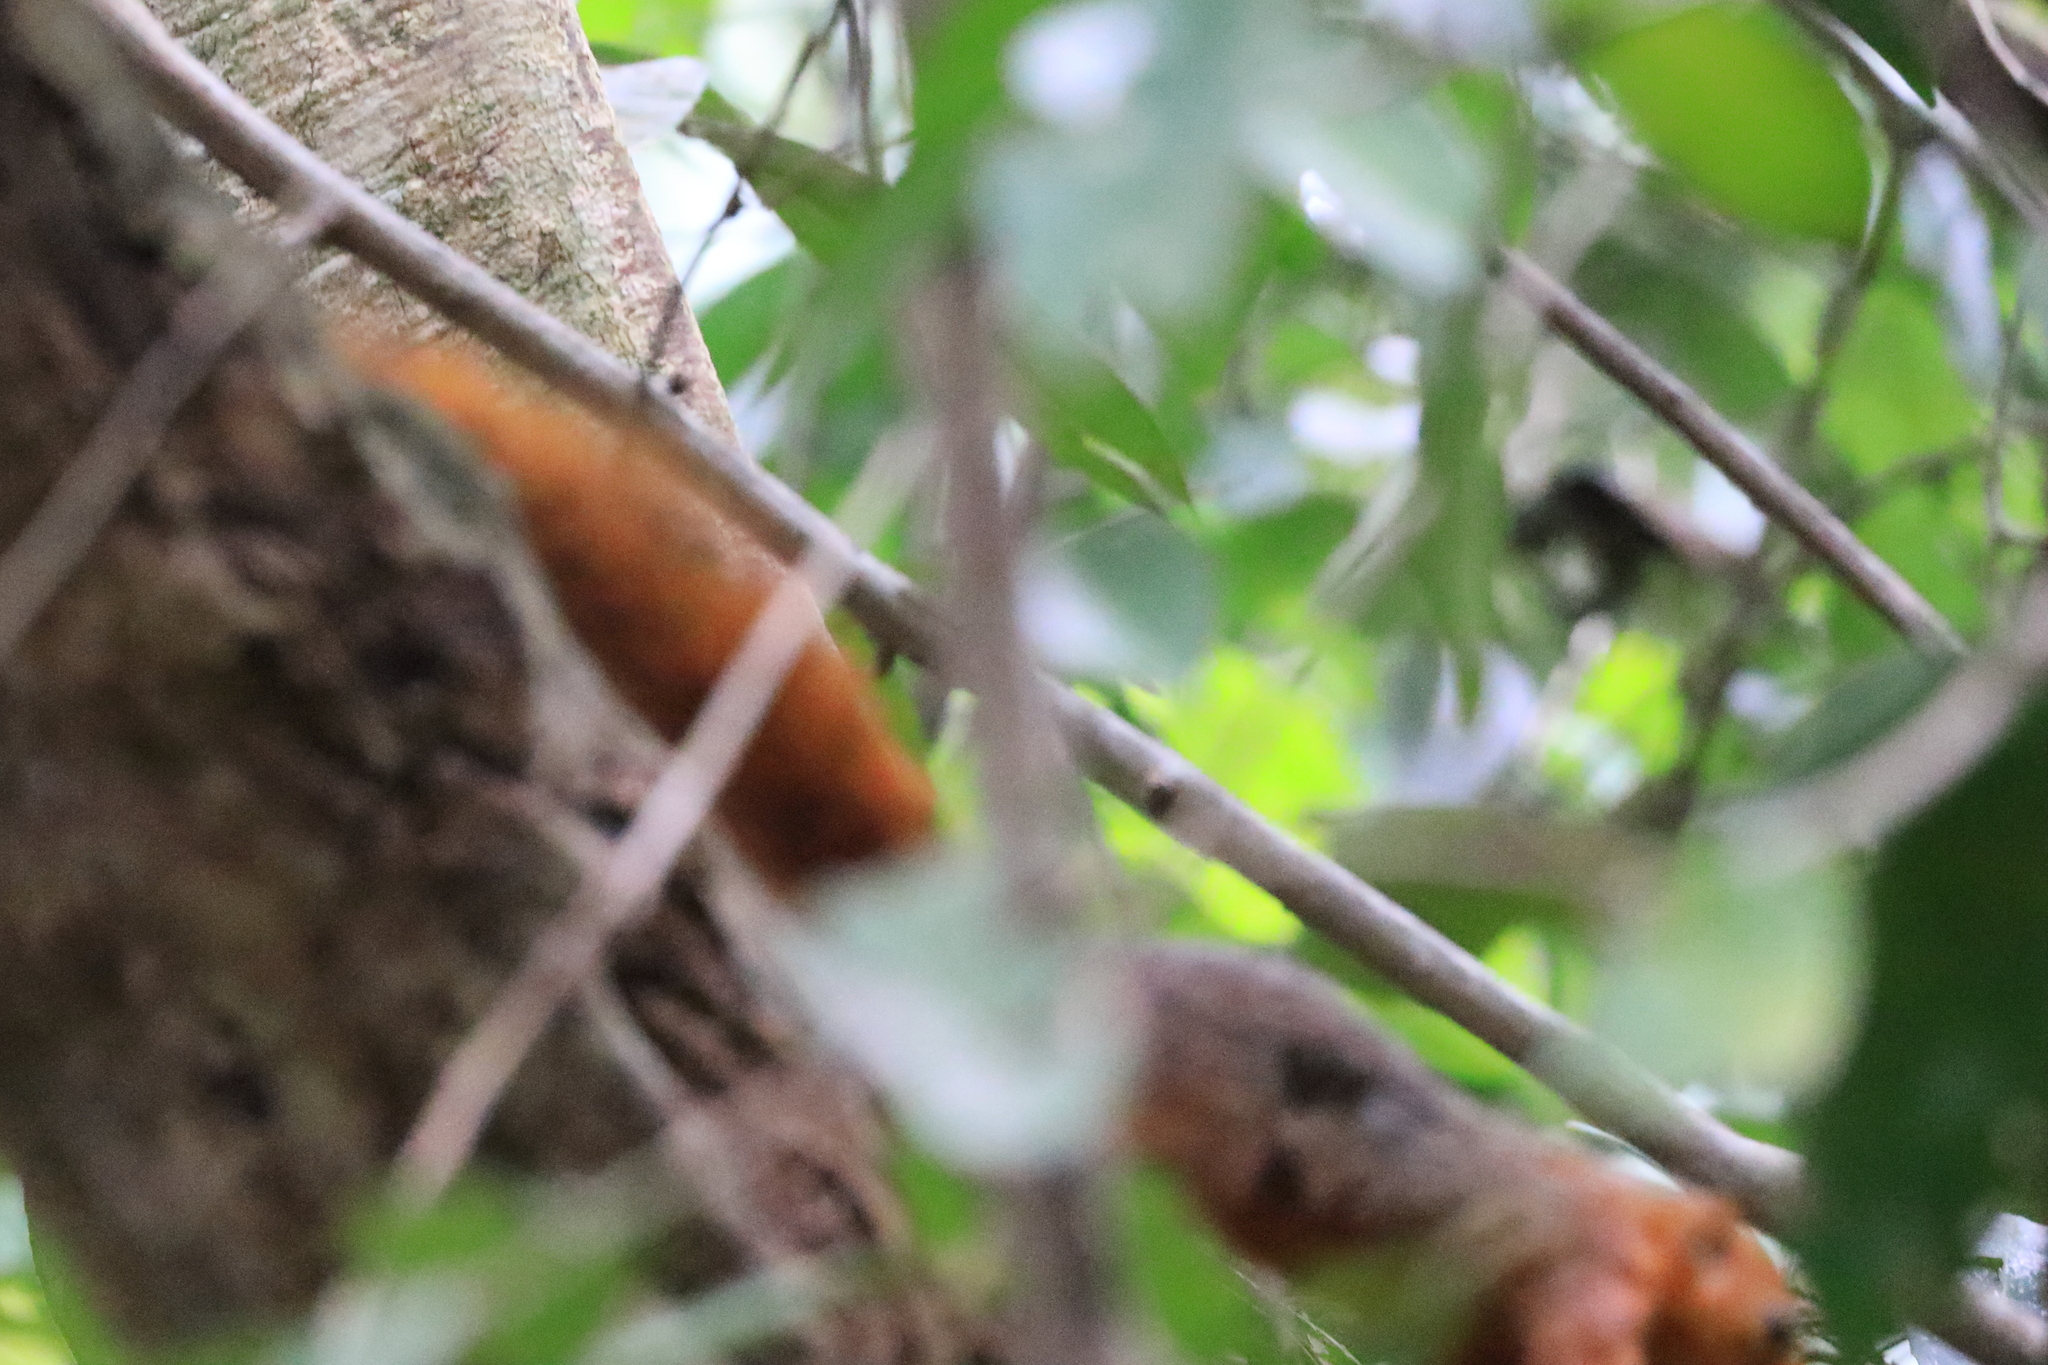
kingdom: Animalia
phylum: Chordata
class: Mammalia
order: Rodentia
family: Sciuridae
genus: Paraxerus
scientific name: Paraxerus palliatus
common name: Red bush squirrel
